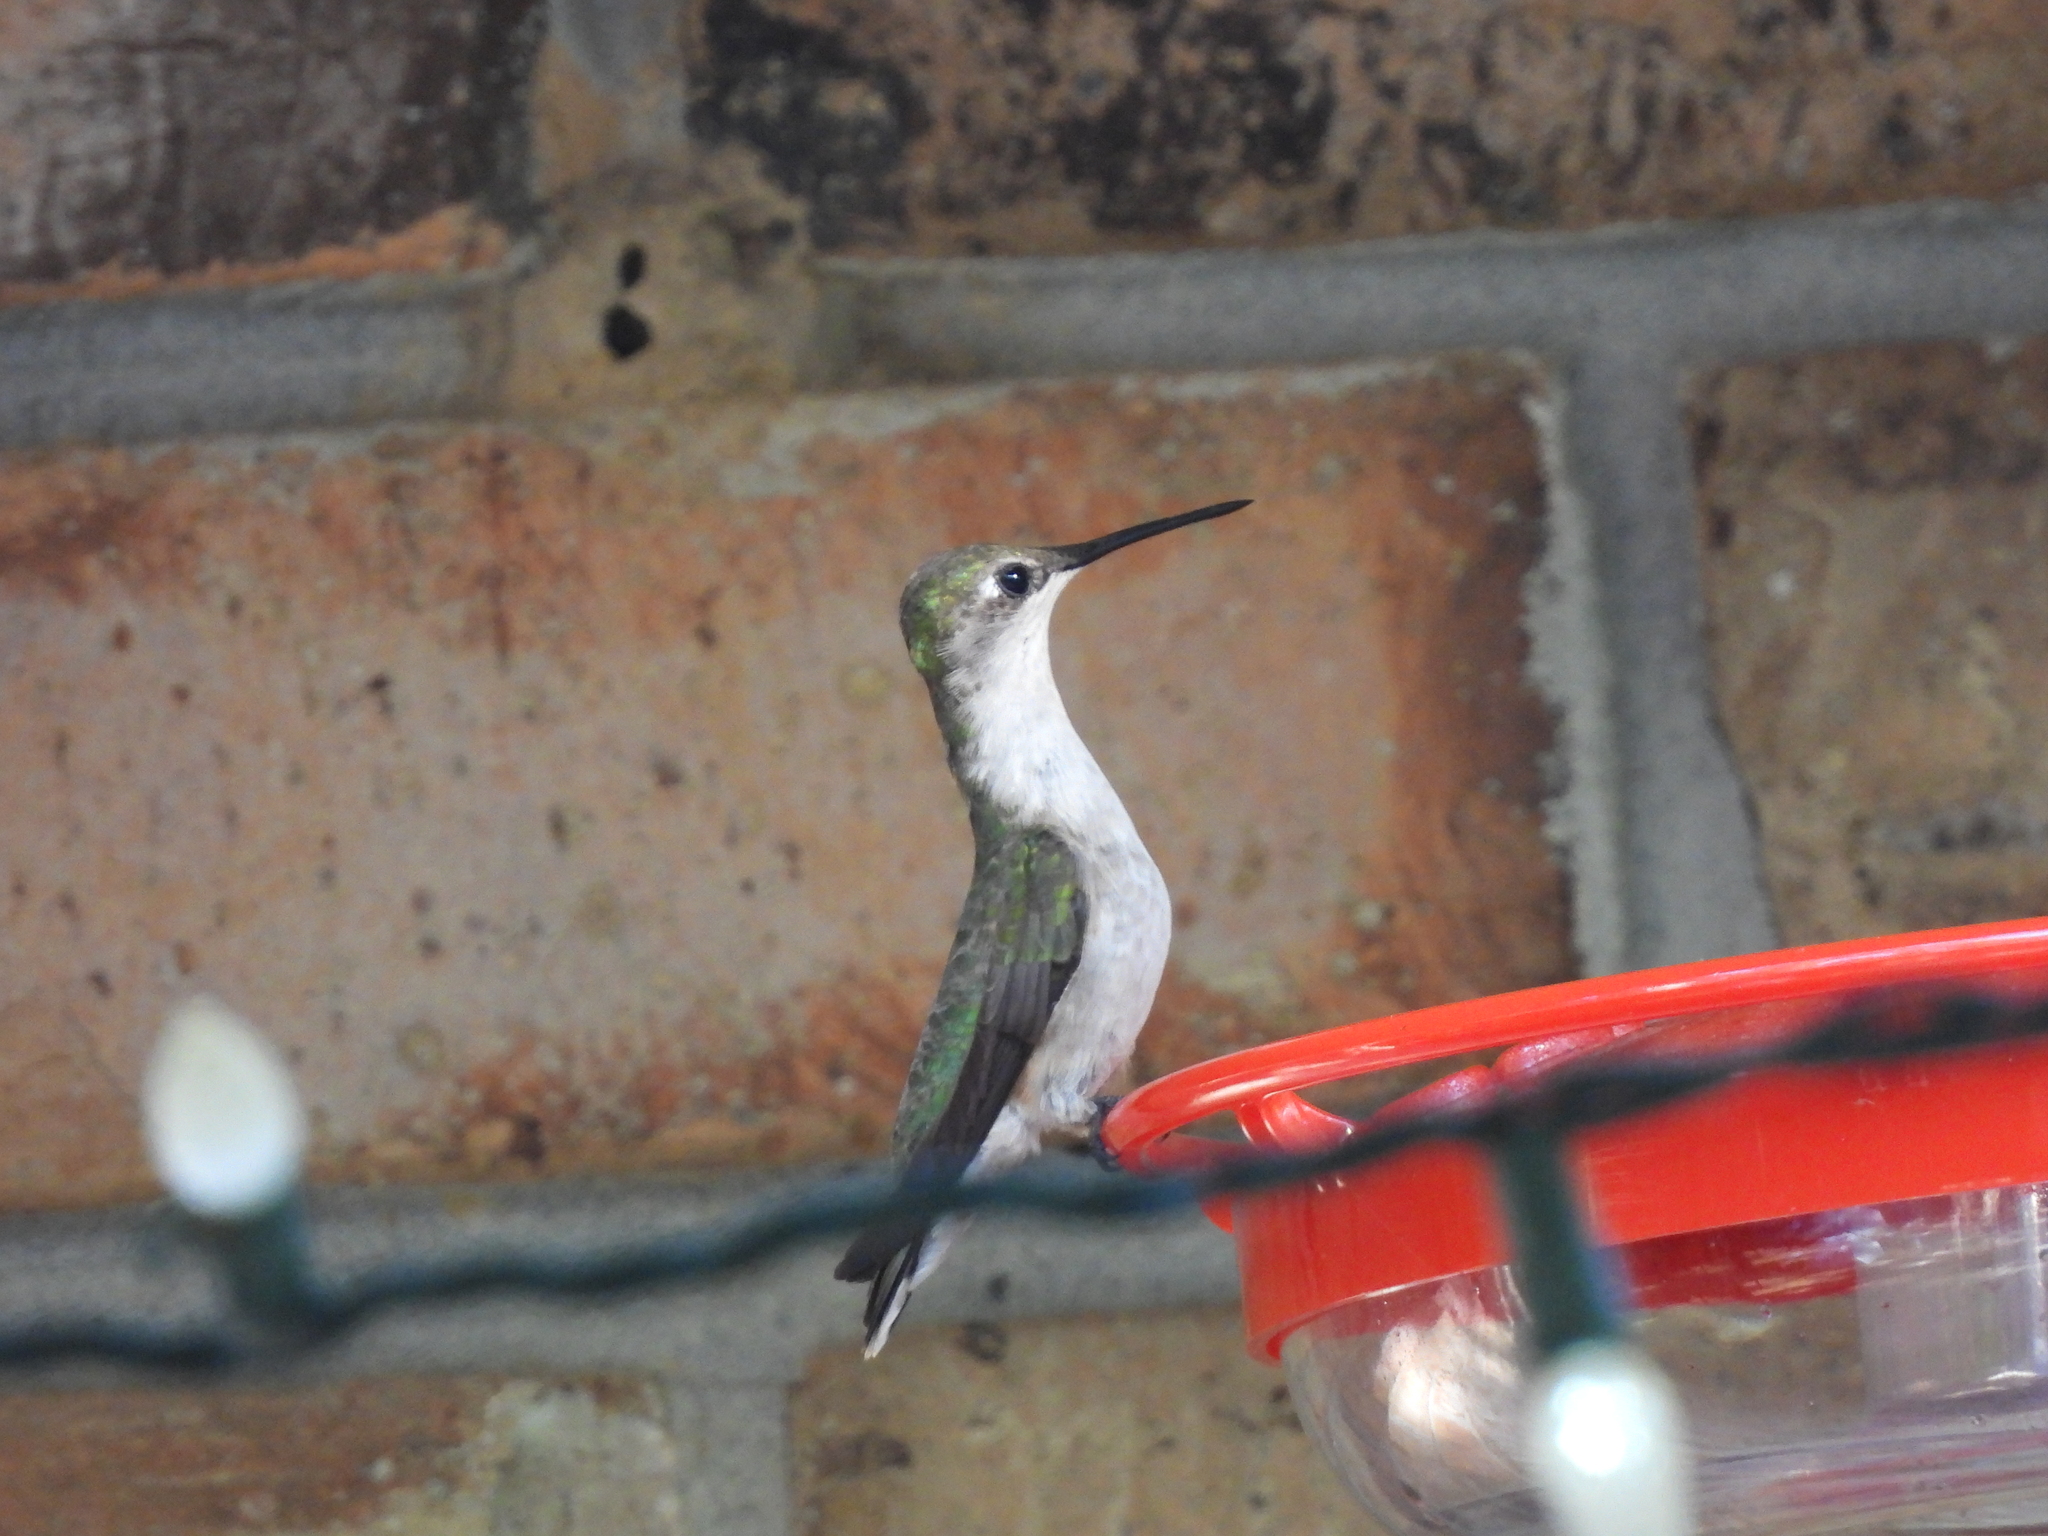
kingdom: Animalia
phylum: Chordata
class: Aves
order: Apodiformes
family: Trochilidae
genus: Archilochus
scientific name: Archilochus colubris
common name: Ruby-throated hummingbird
